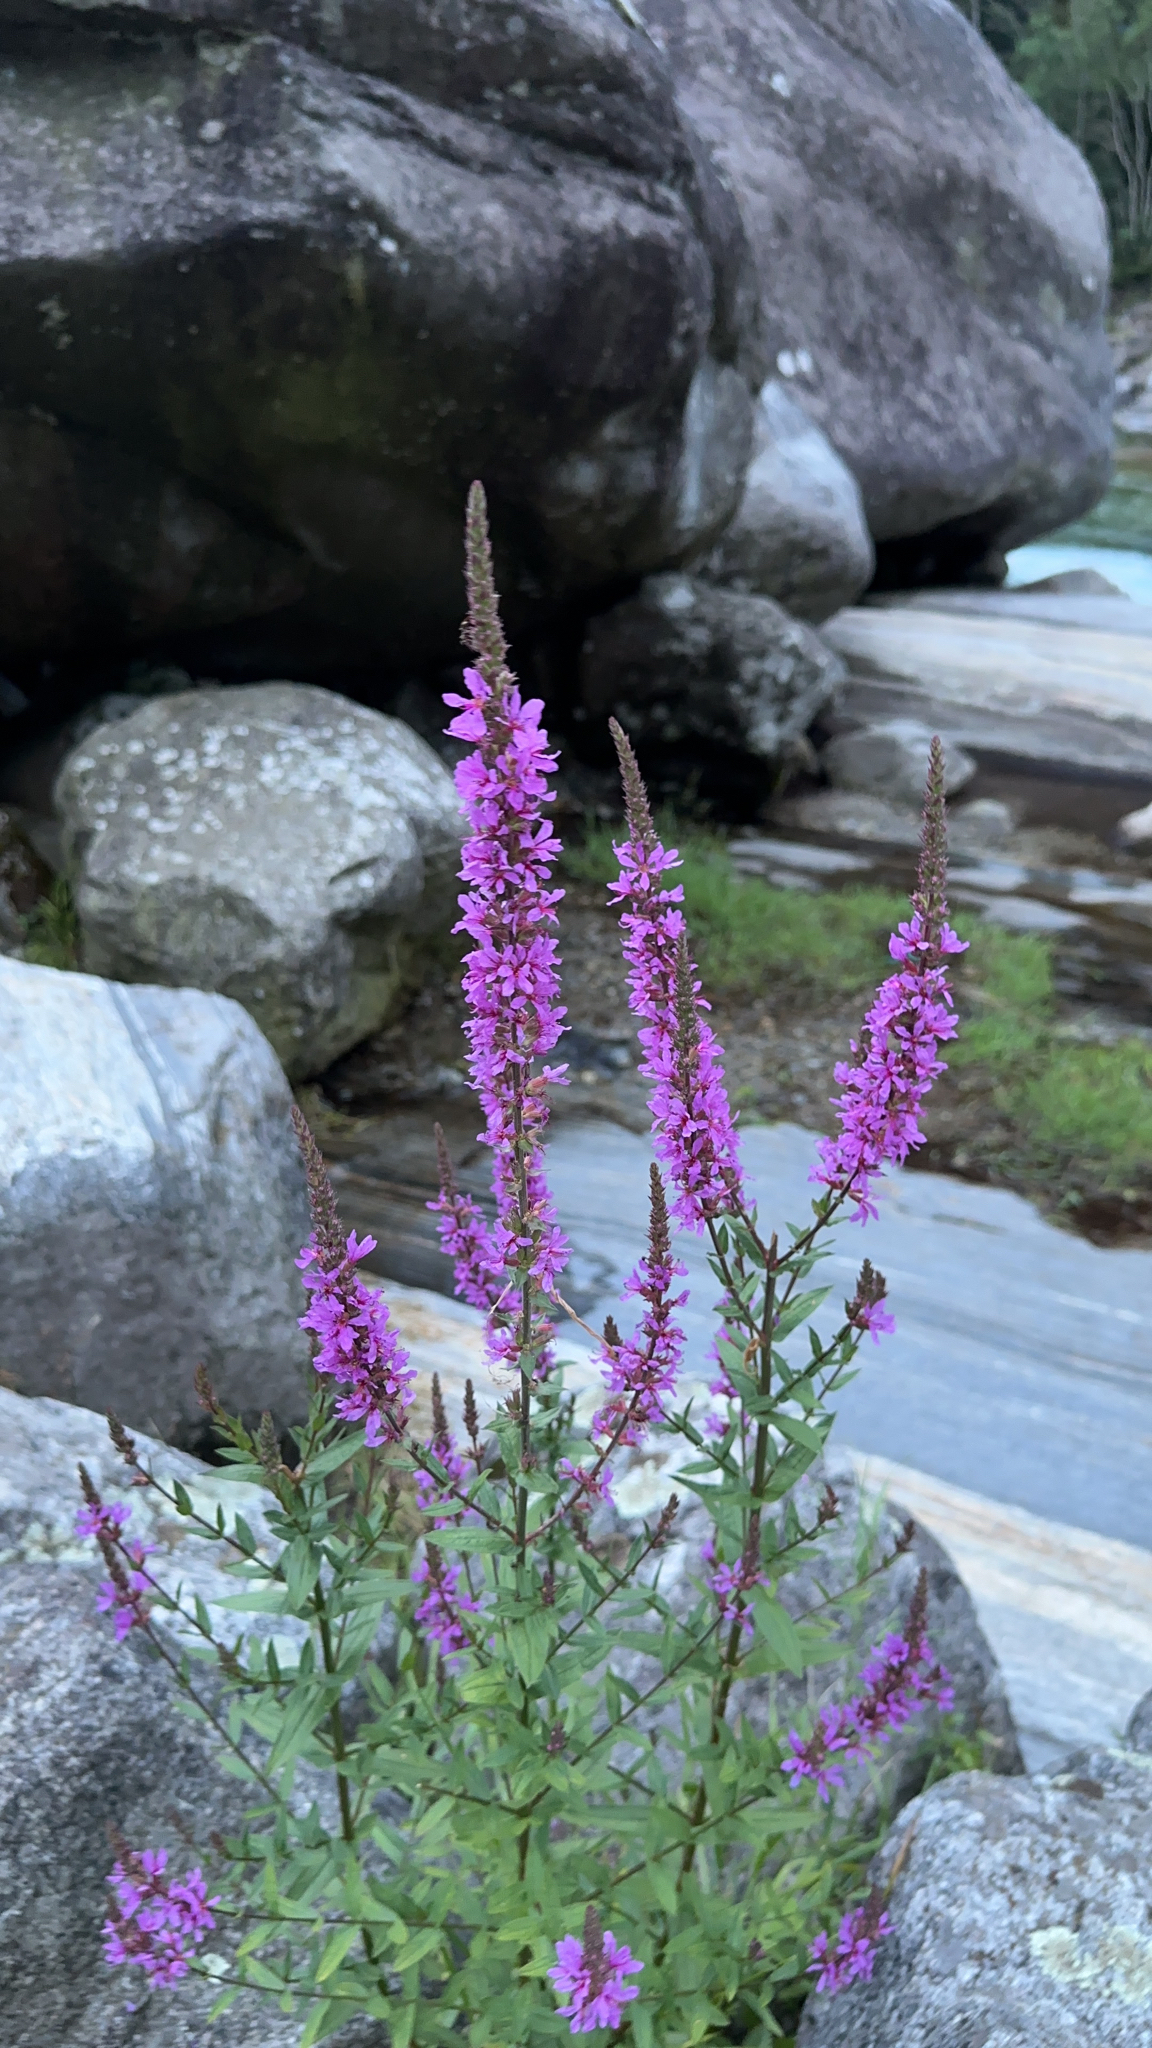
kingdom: Plantae
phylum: Tracheophyta
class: Magnoliopsida
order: Myrtales
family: Lythraceae
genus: Lythrum
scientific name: Lythrum salicaria
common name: Purple loosestrife
